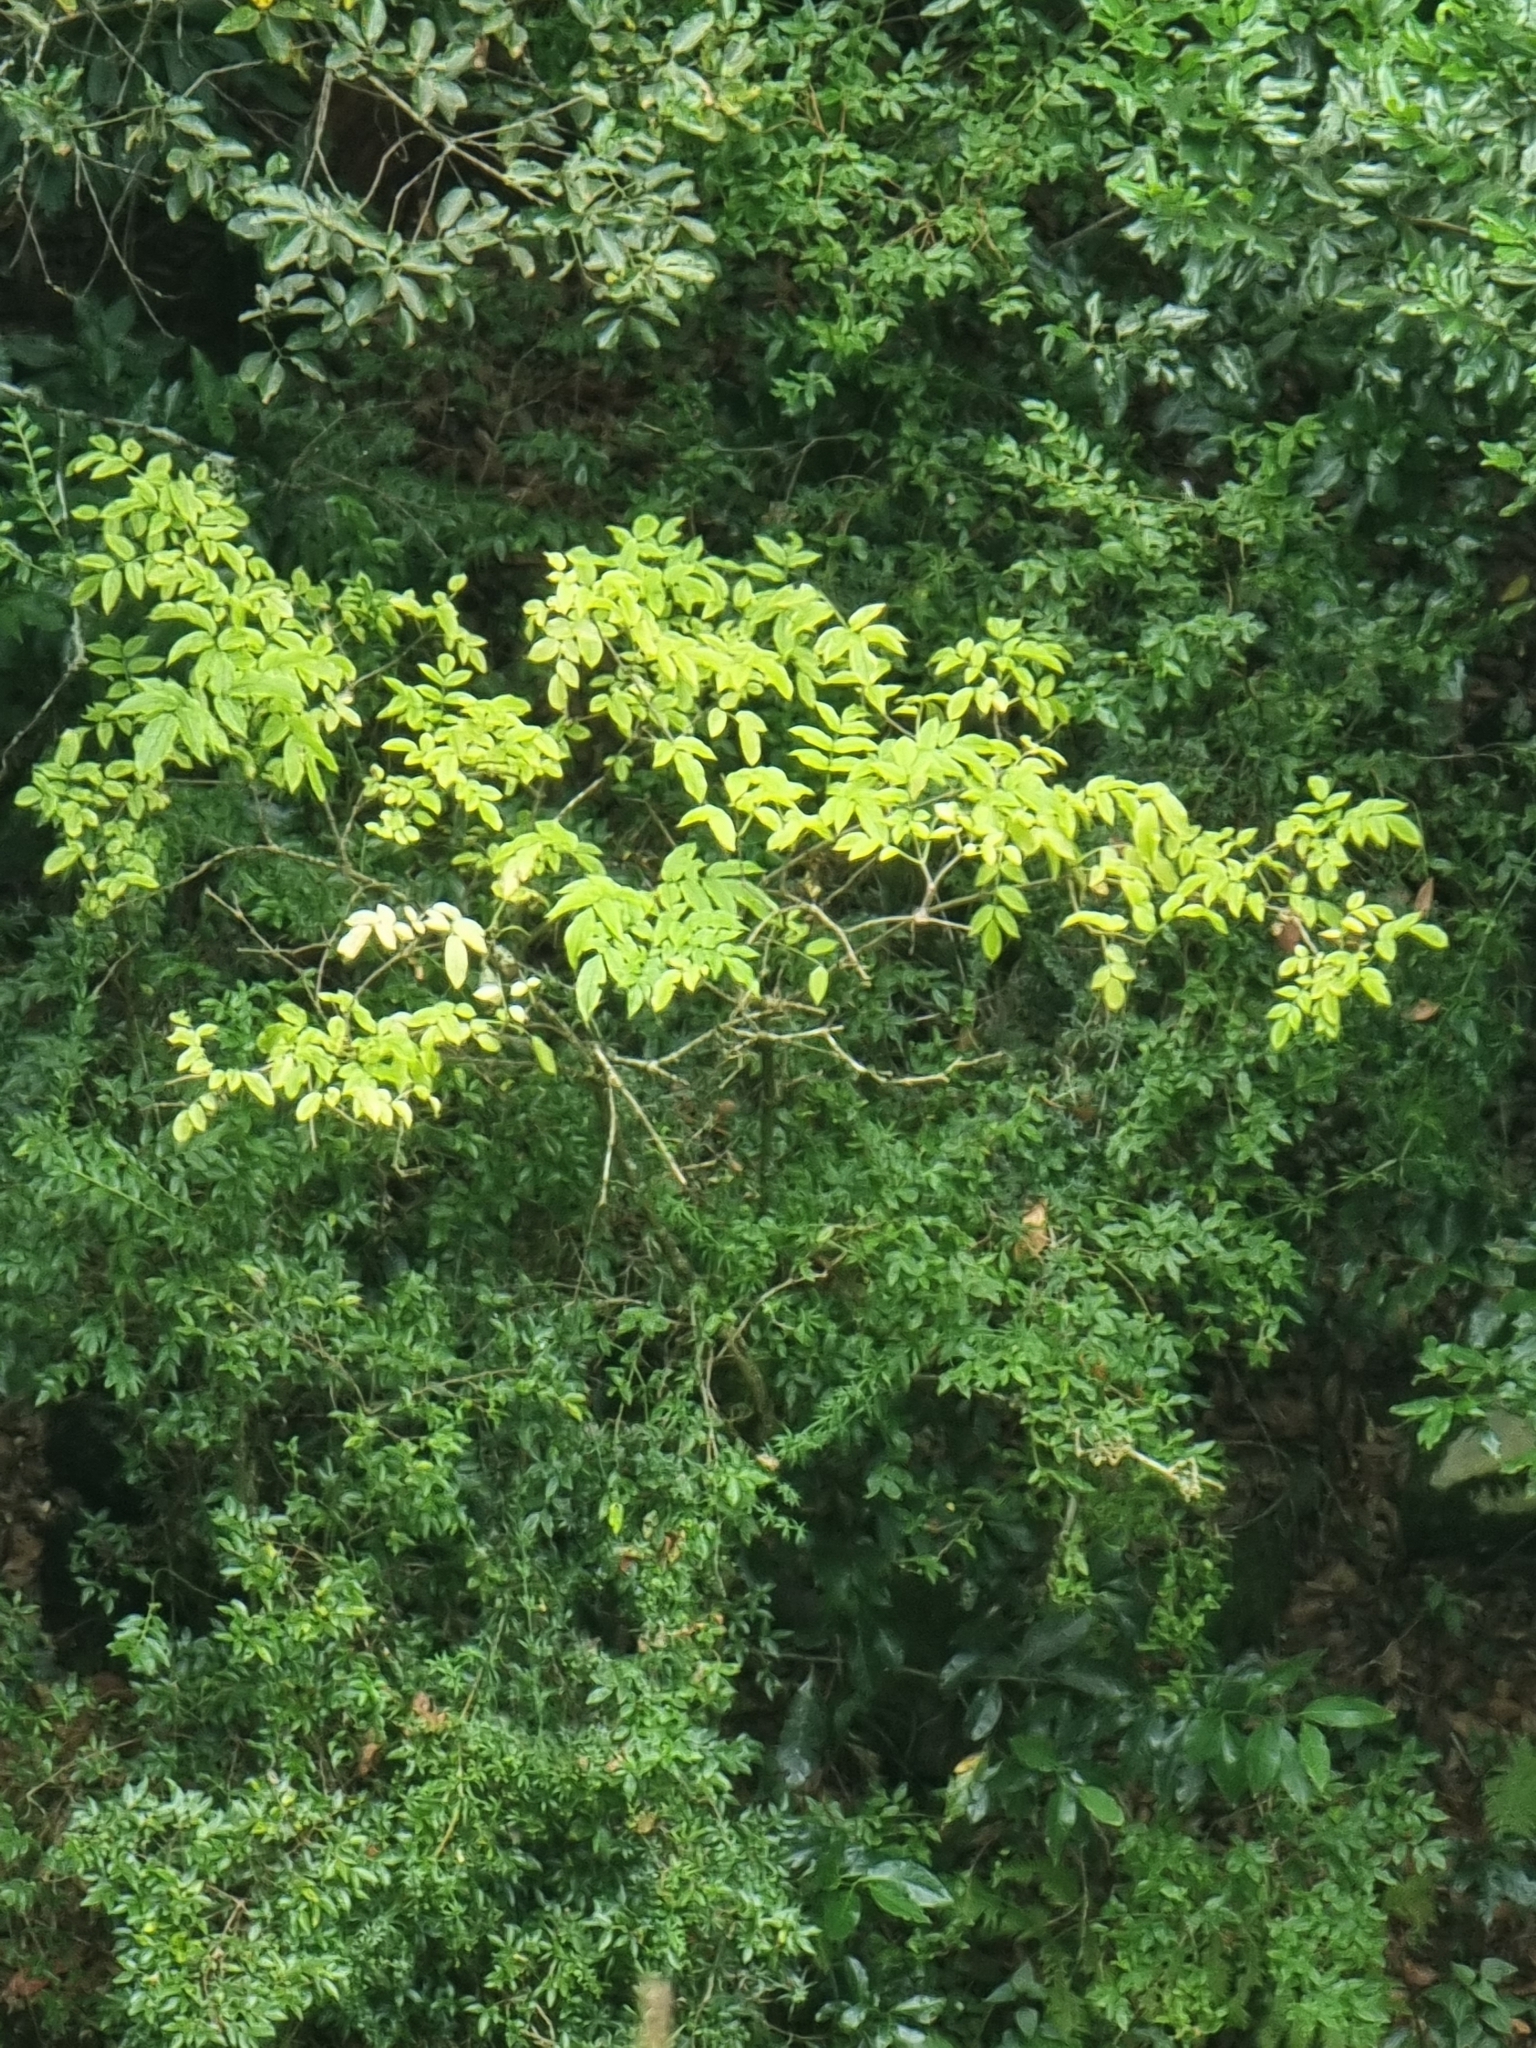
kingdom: Plantae
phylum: Tracheophyta
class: Magnoliopsida
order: Dipsacales
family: Viburnaceae
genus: Sambucus
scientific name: Sambucus lanceolata
